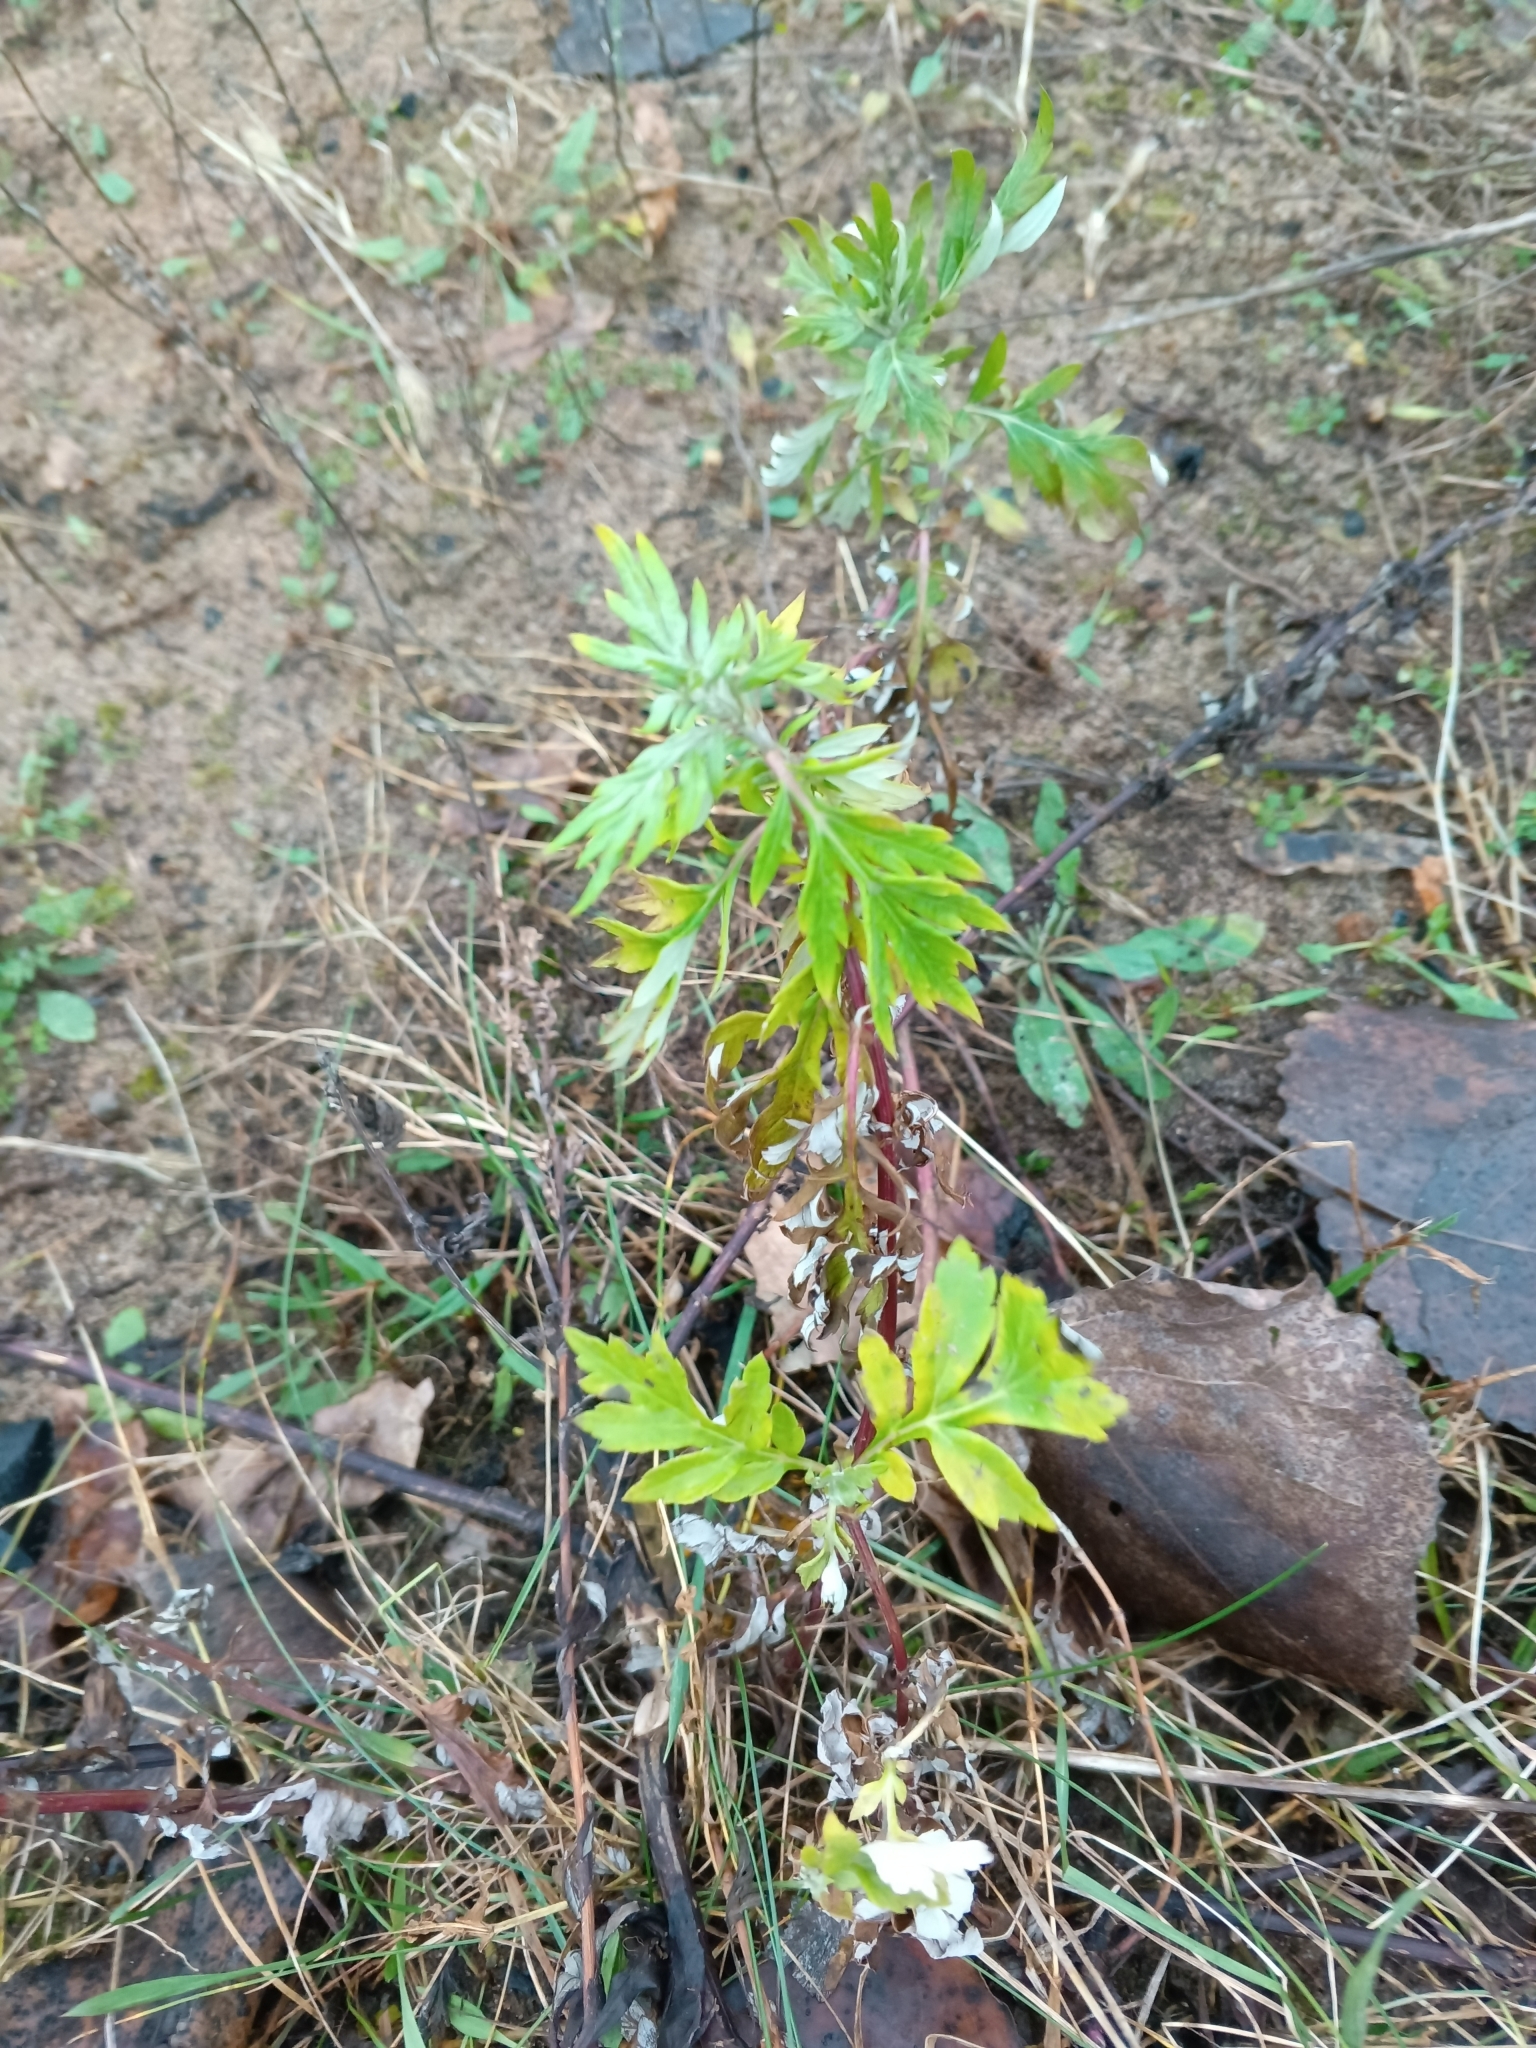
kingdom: Plantae
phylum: Tracheophyta
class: Magnoliopsida
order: Asterales
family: Asteraceae
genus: Artemisia
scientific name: Artemisia vulgaris
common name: Mugwort
